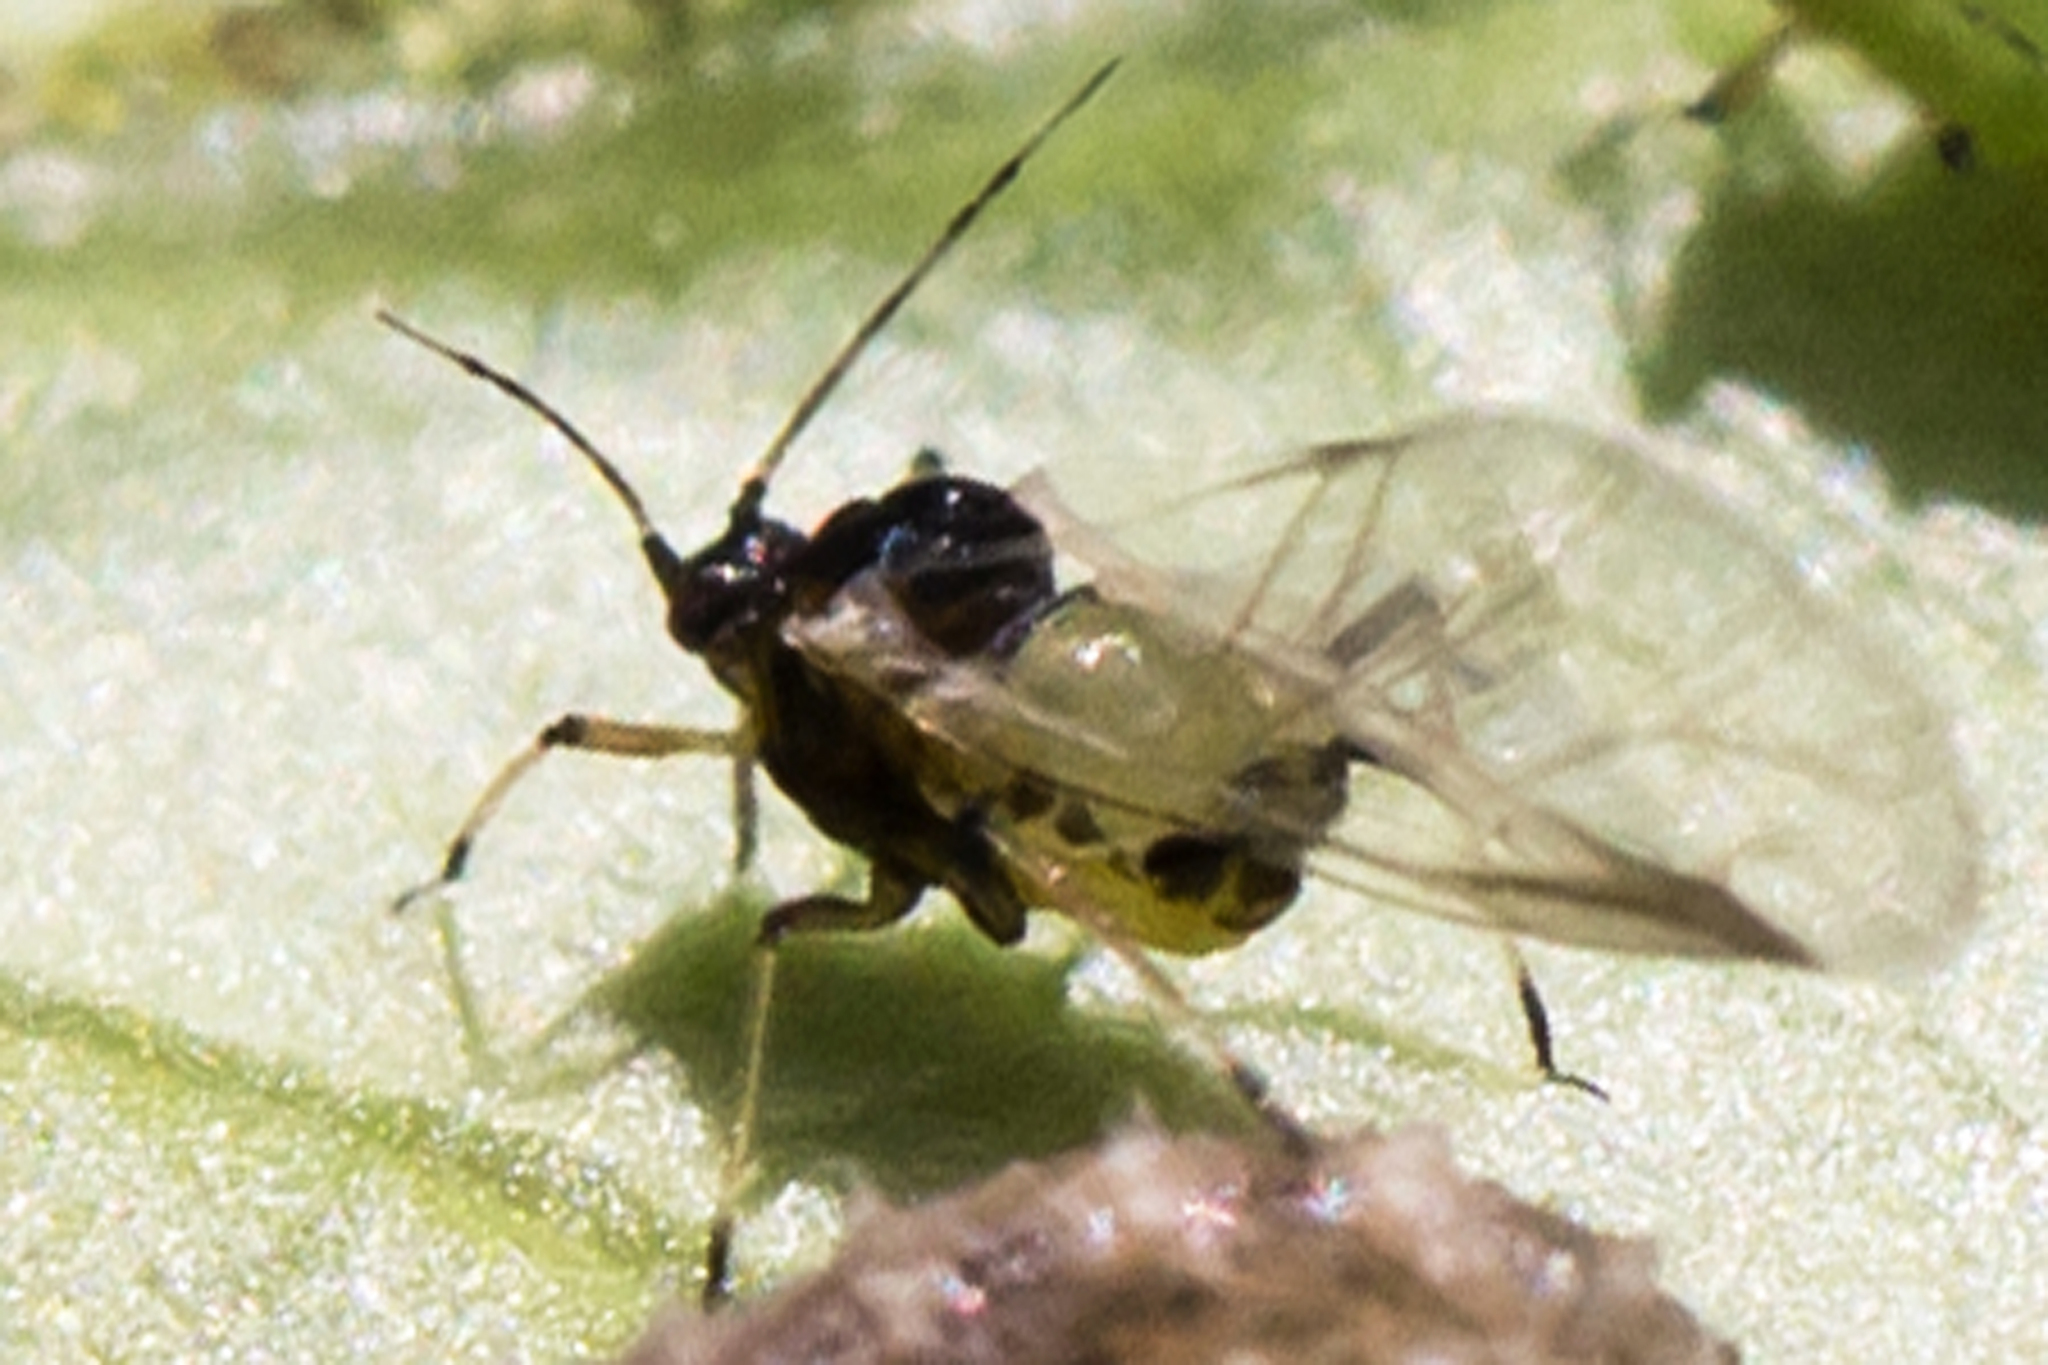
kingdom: Animalia
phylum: Arthropoda
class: Insecta
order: Hemiptera
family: Aphididae
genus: Aphis
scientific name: Aphis spiraecola
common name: Spirea aphid
